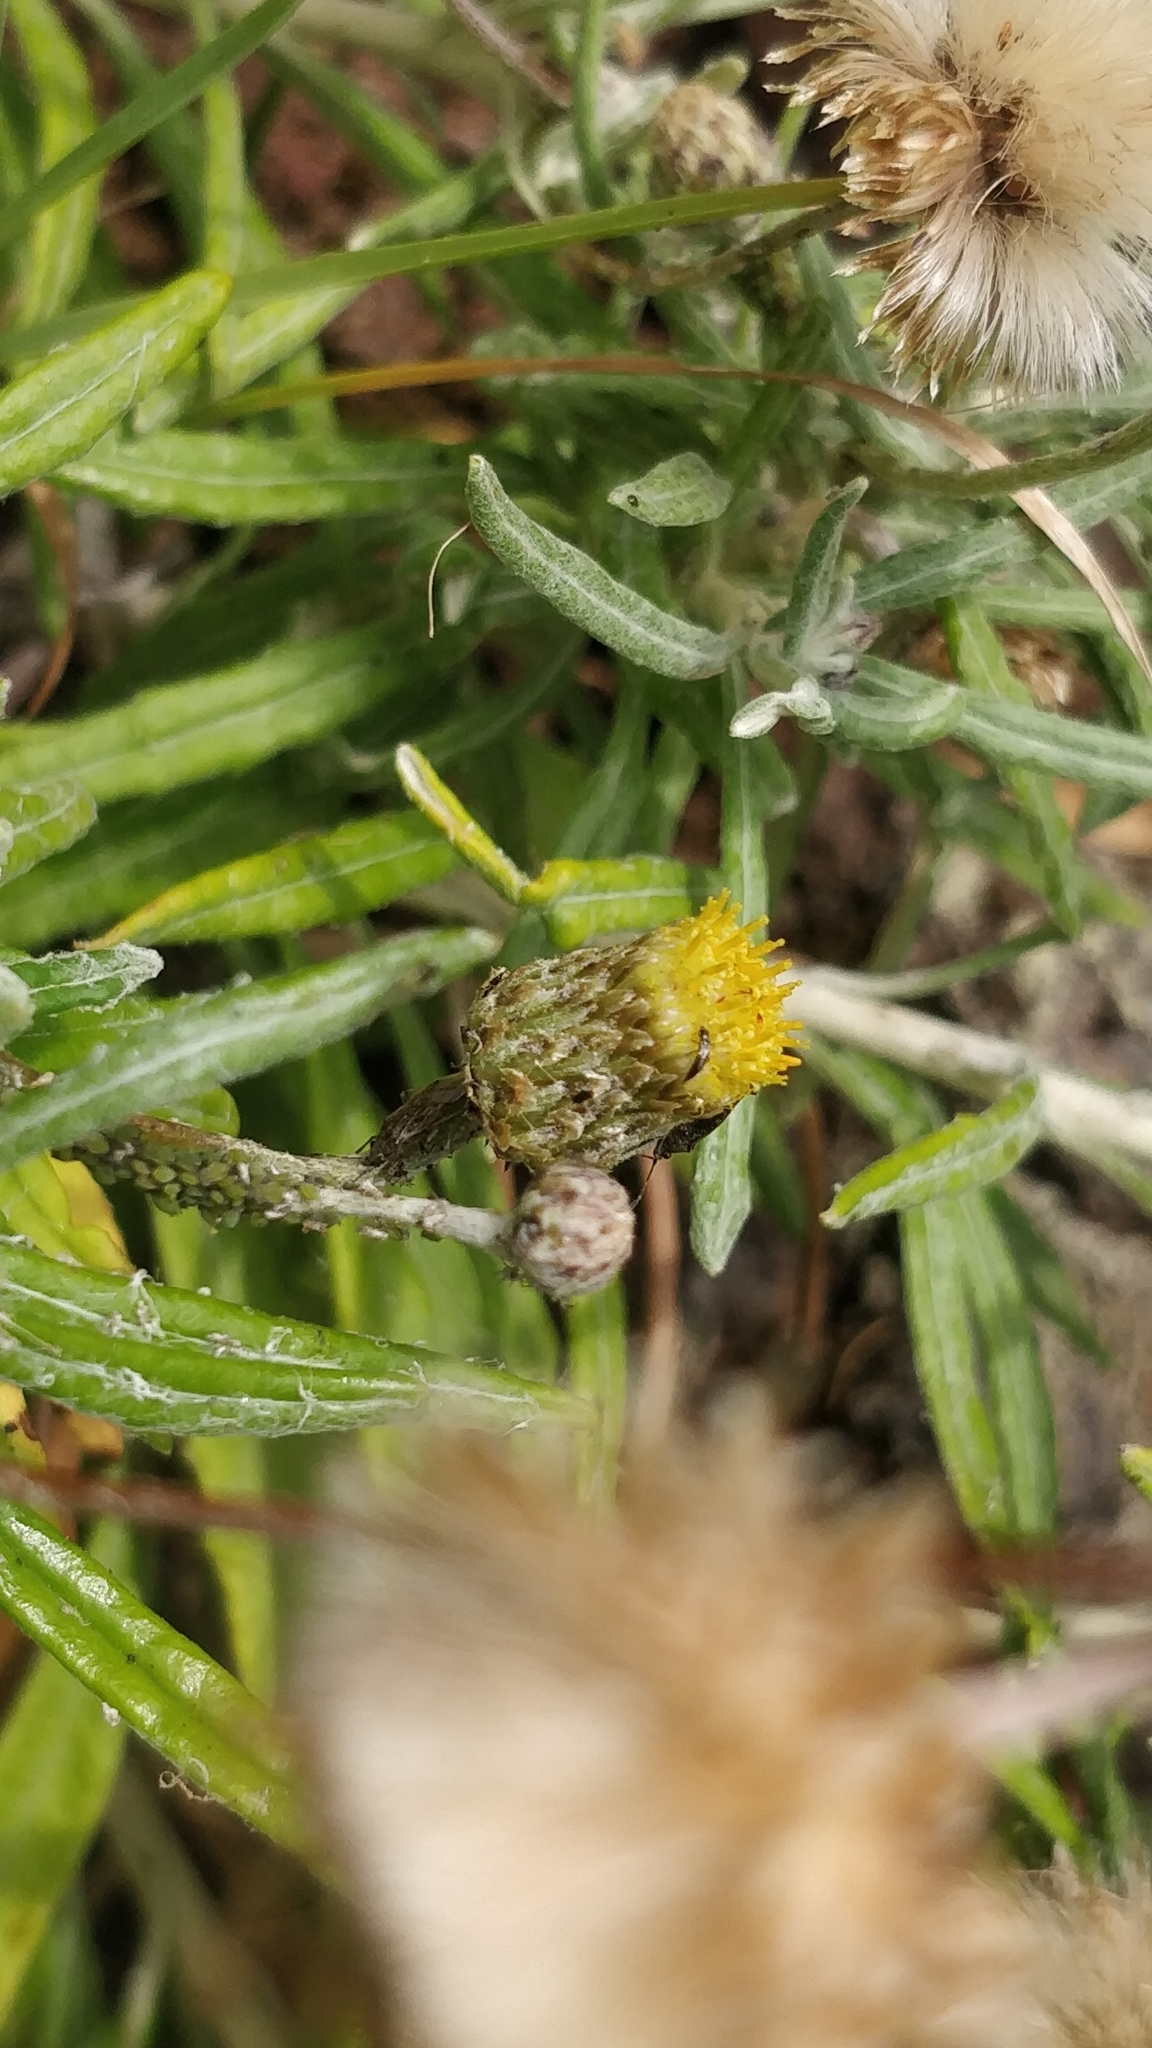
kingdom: Plantae
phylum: Tracheophyta
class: Magnoliopsida
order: Asterales
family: Asteraceae
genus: Phagnalon
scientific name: Phagnalon saxatile
